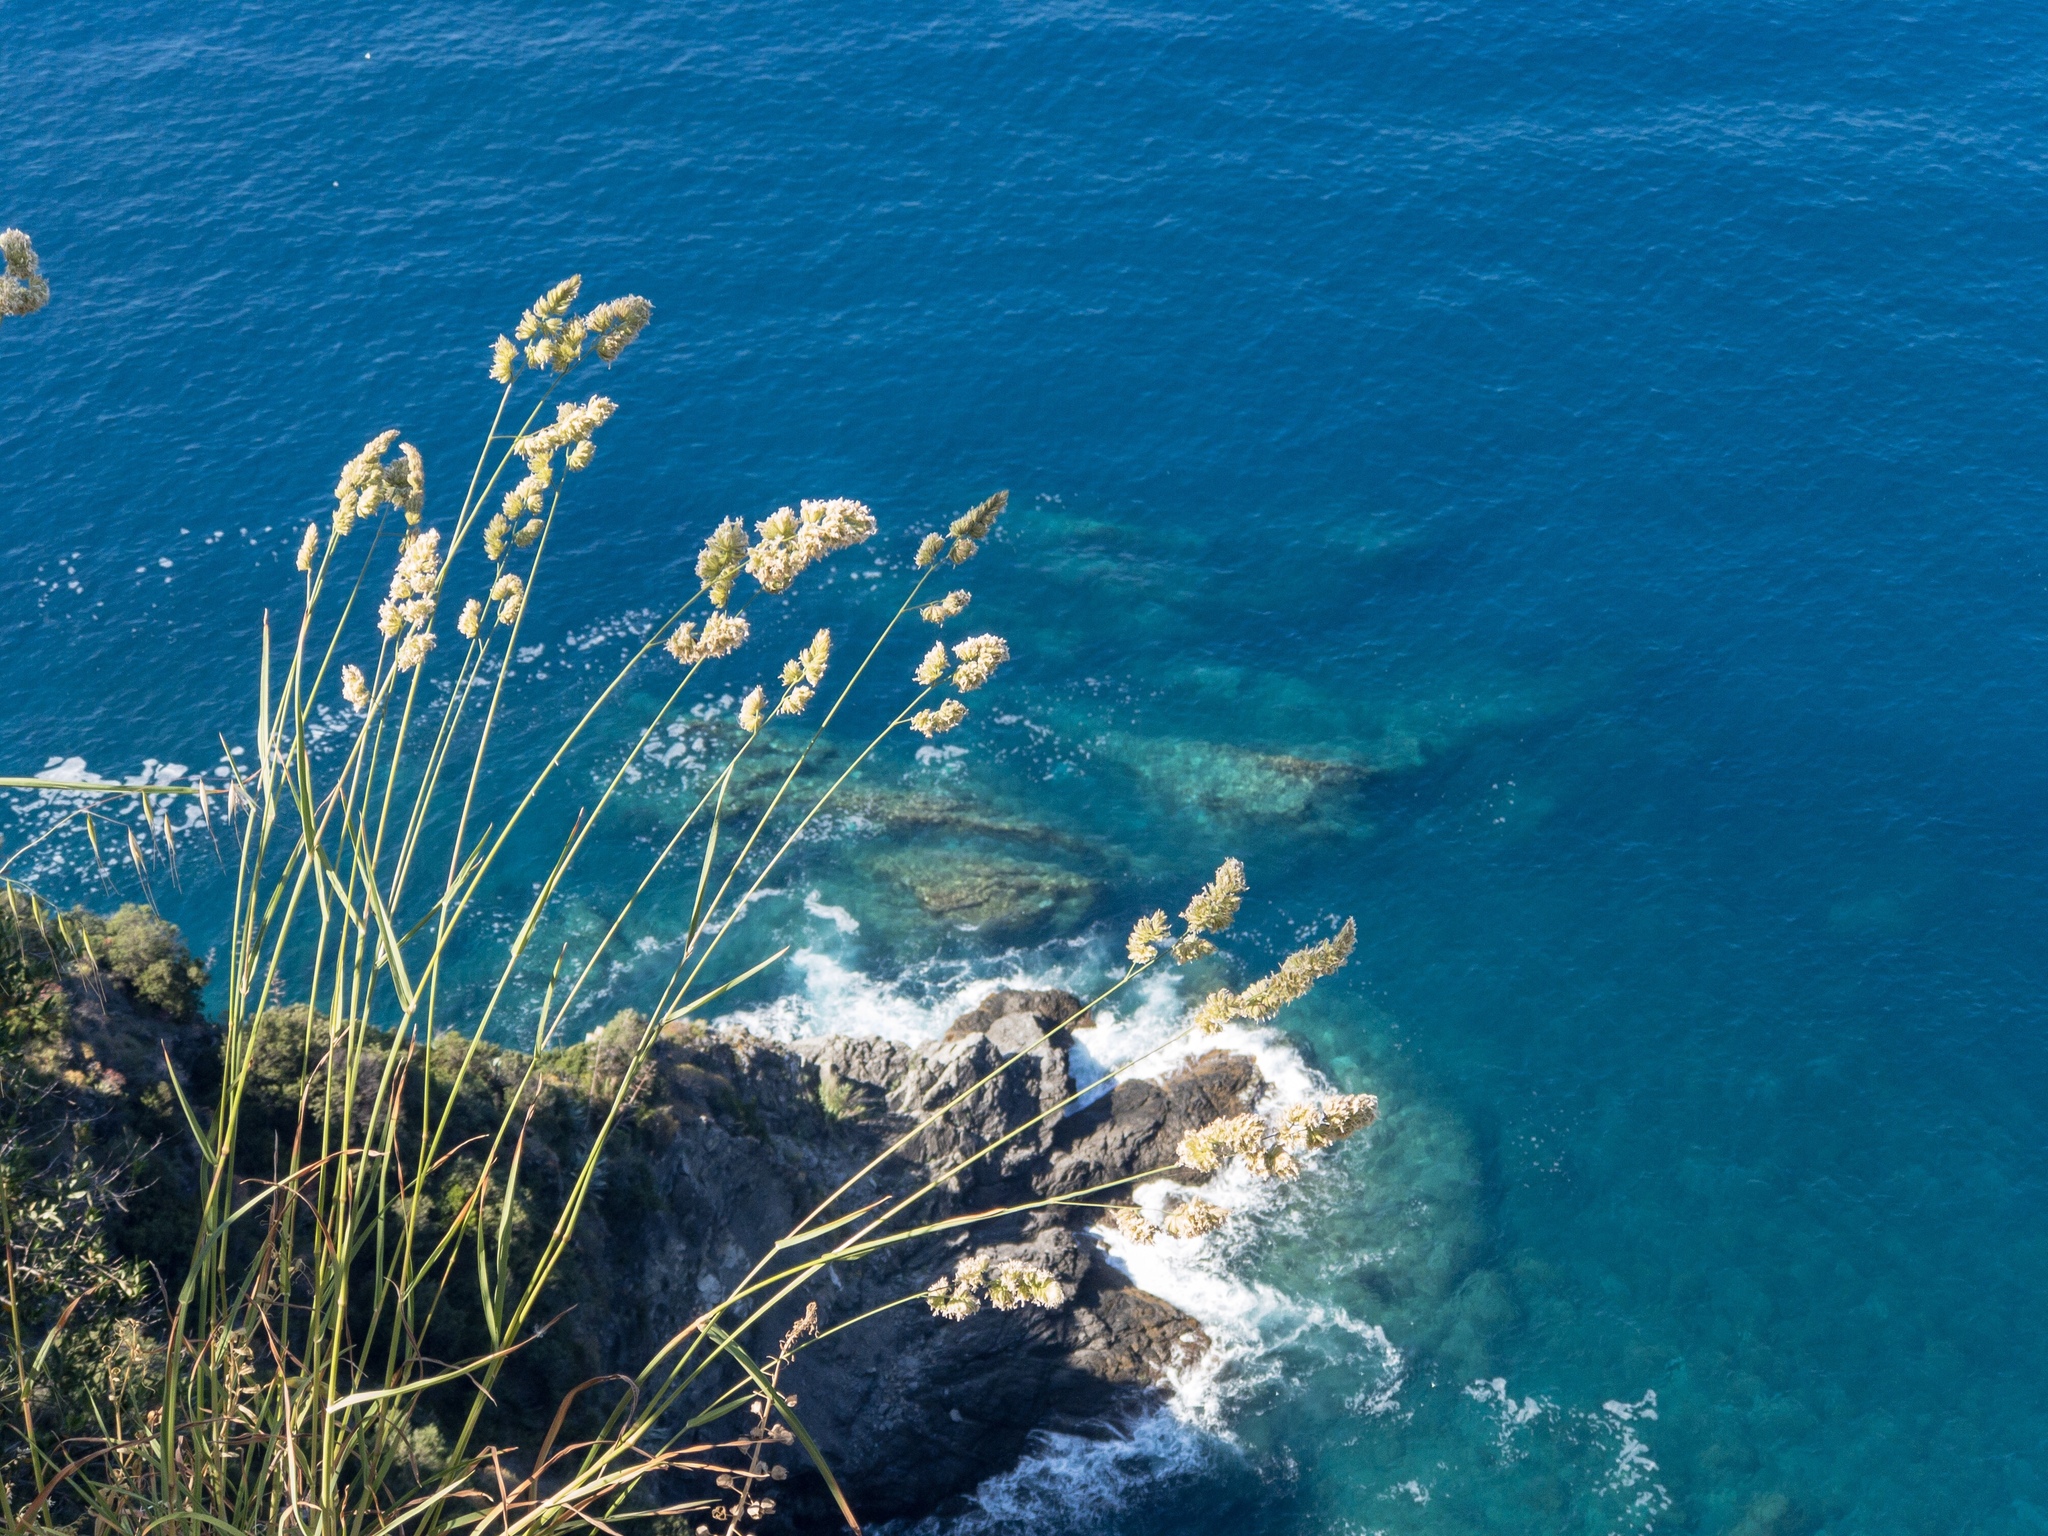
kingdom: Plantae
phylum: Tracheophyta
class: Liliopsida
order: Poales
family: Poaceae
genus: Dactylis
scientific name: Dactylis glomerata
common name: Orchardgrass
